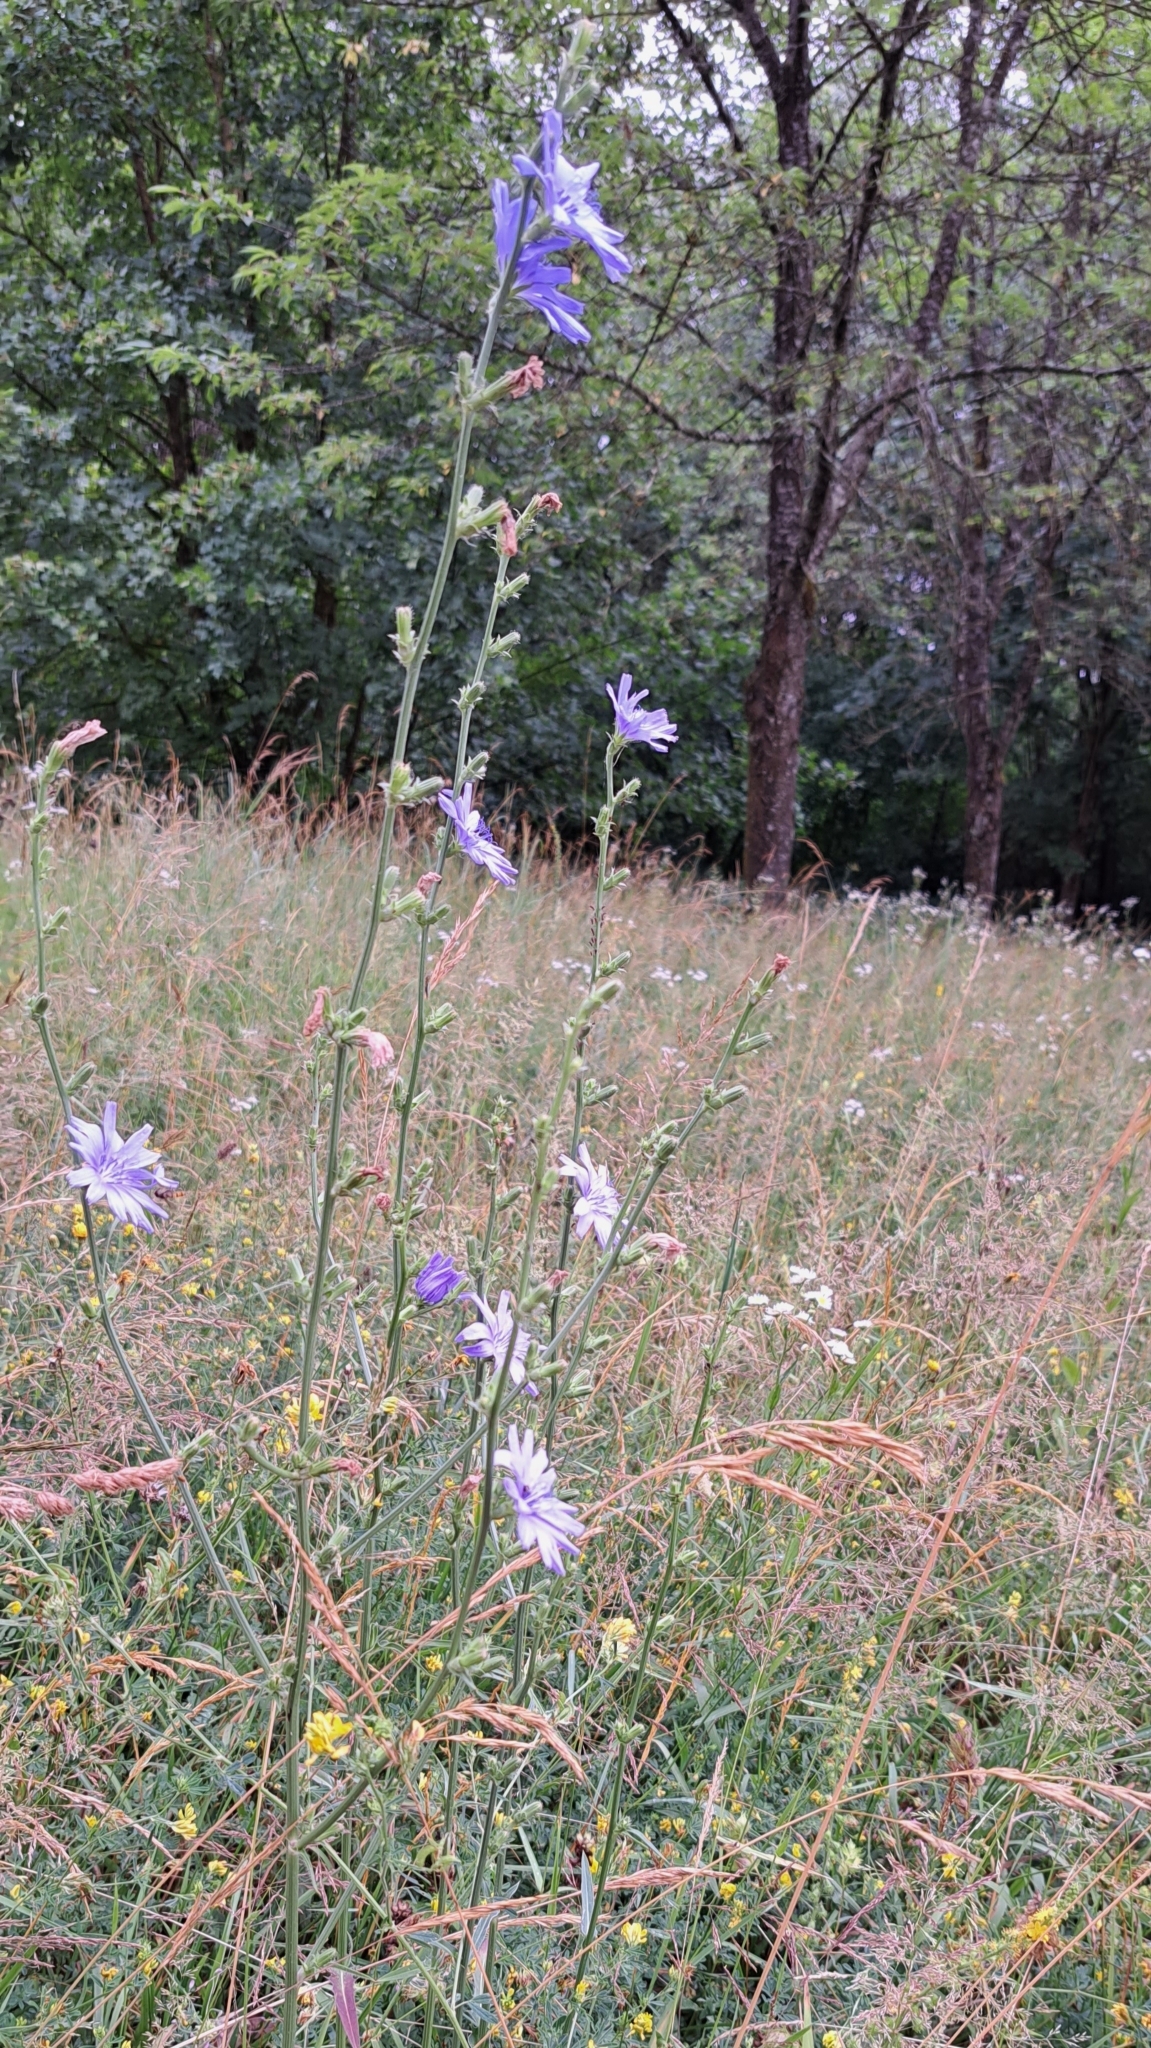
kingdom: Plantae
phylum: Tracheophyta
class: Magnoliopsida
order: Asterales
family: Asteraceae
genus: Cichorium
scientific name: Cichorium intybus
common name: Chicory
